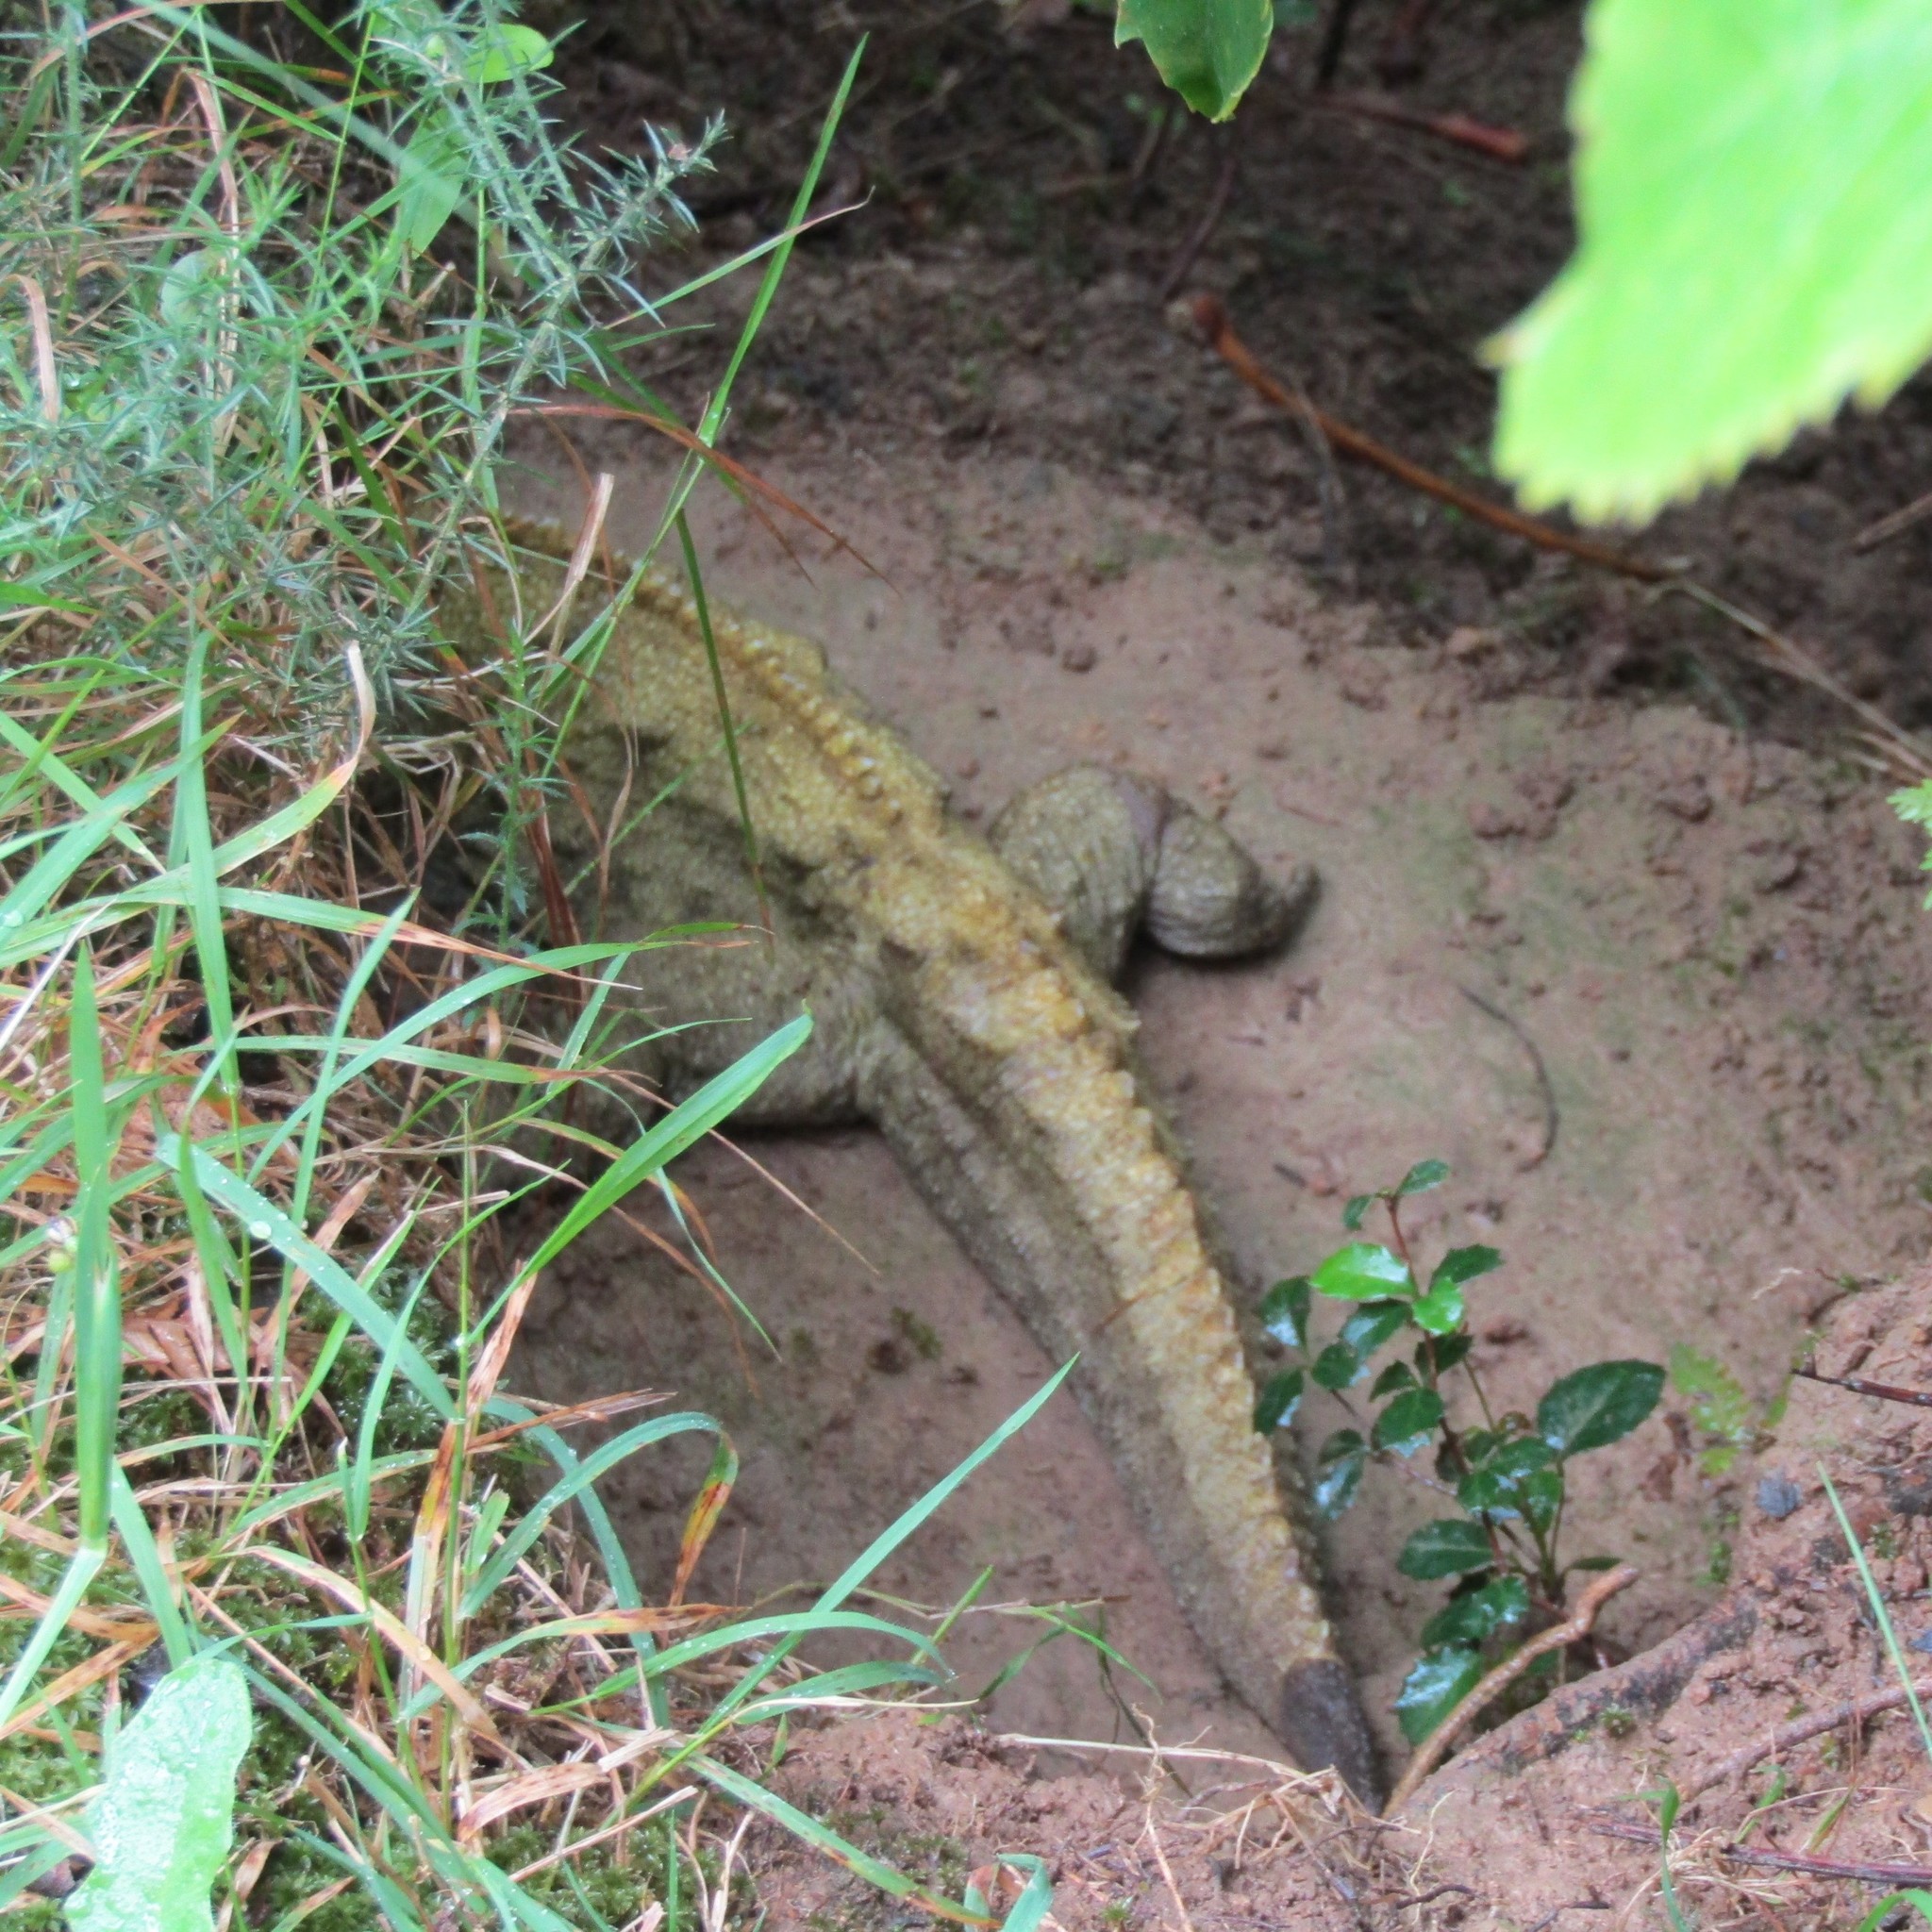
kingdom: Animalia
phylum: Chordata
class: Sphenodontia
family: Sphenodontidae
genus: Sphenodon
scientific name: Sphenodon punctatus
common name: Tuatara
